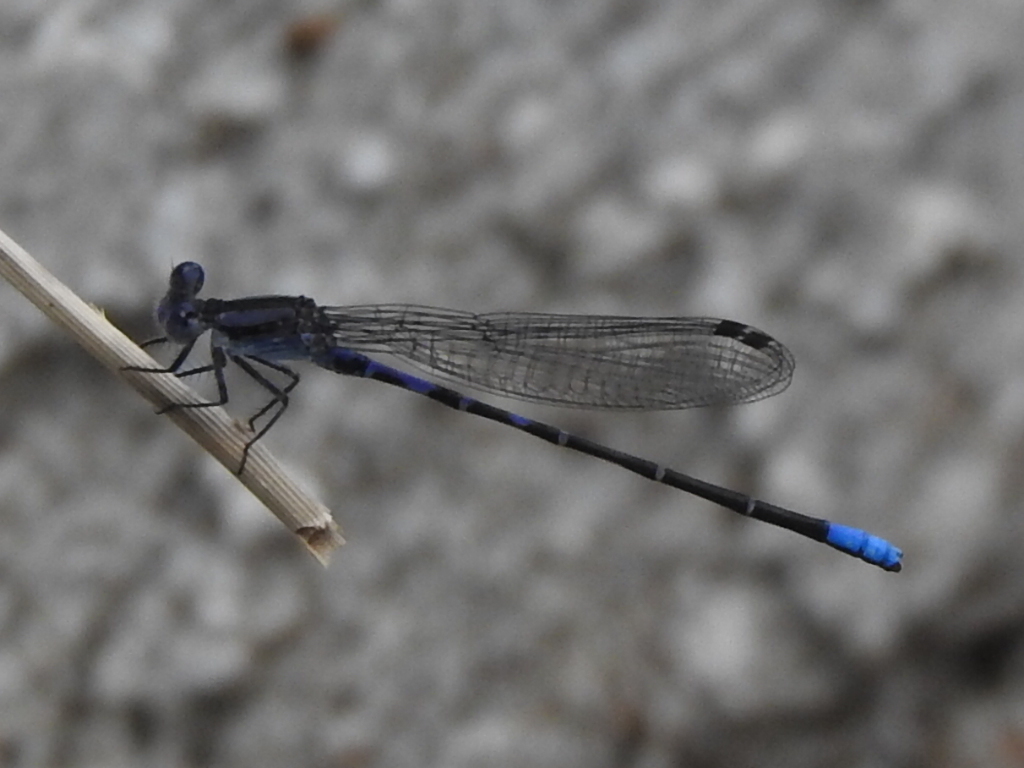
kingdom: Animalia
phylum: Arthropoda
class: Insecta
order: Odonata
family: Coenagrionidae
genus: Argia
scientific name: Argia immunda
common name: Kiowa dancer
